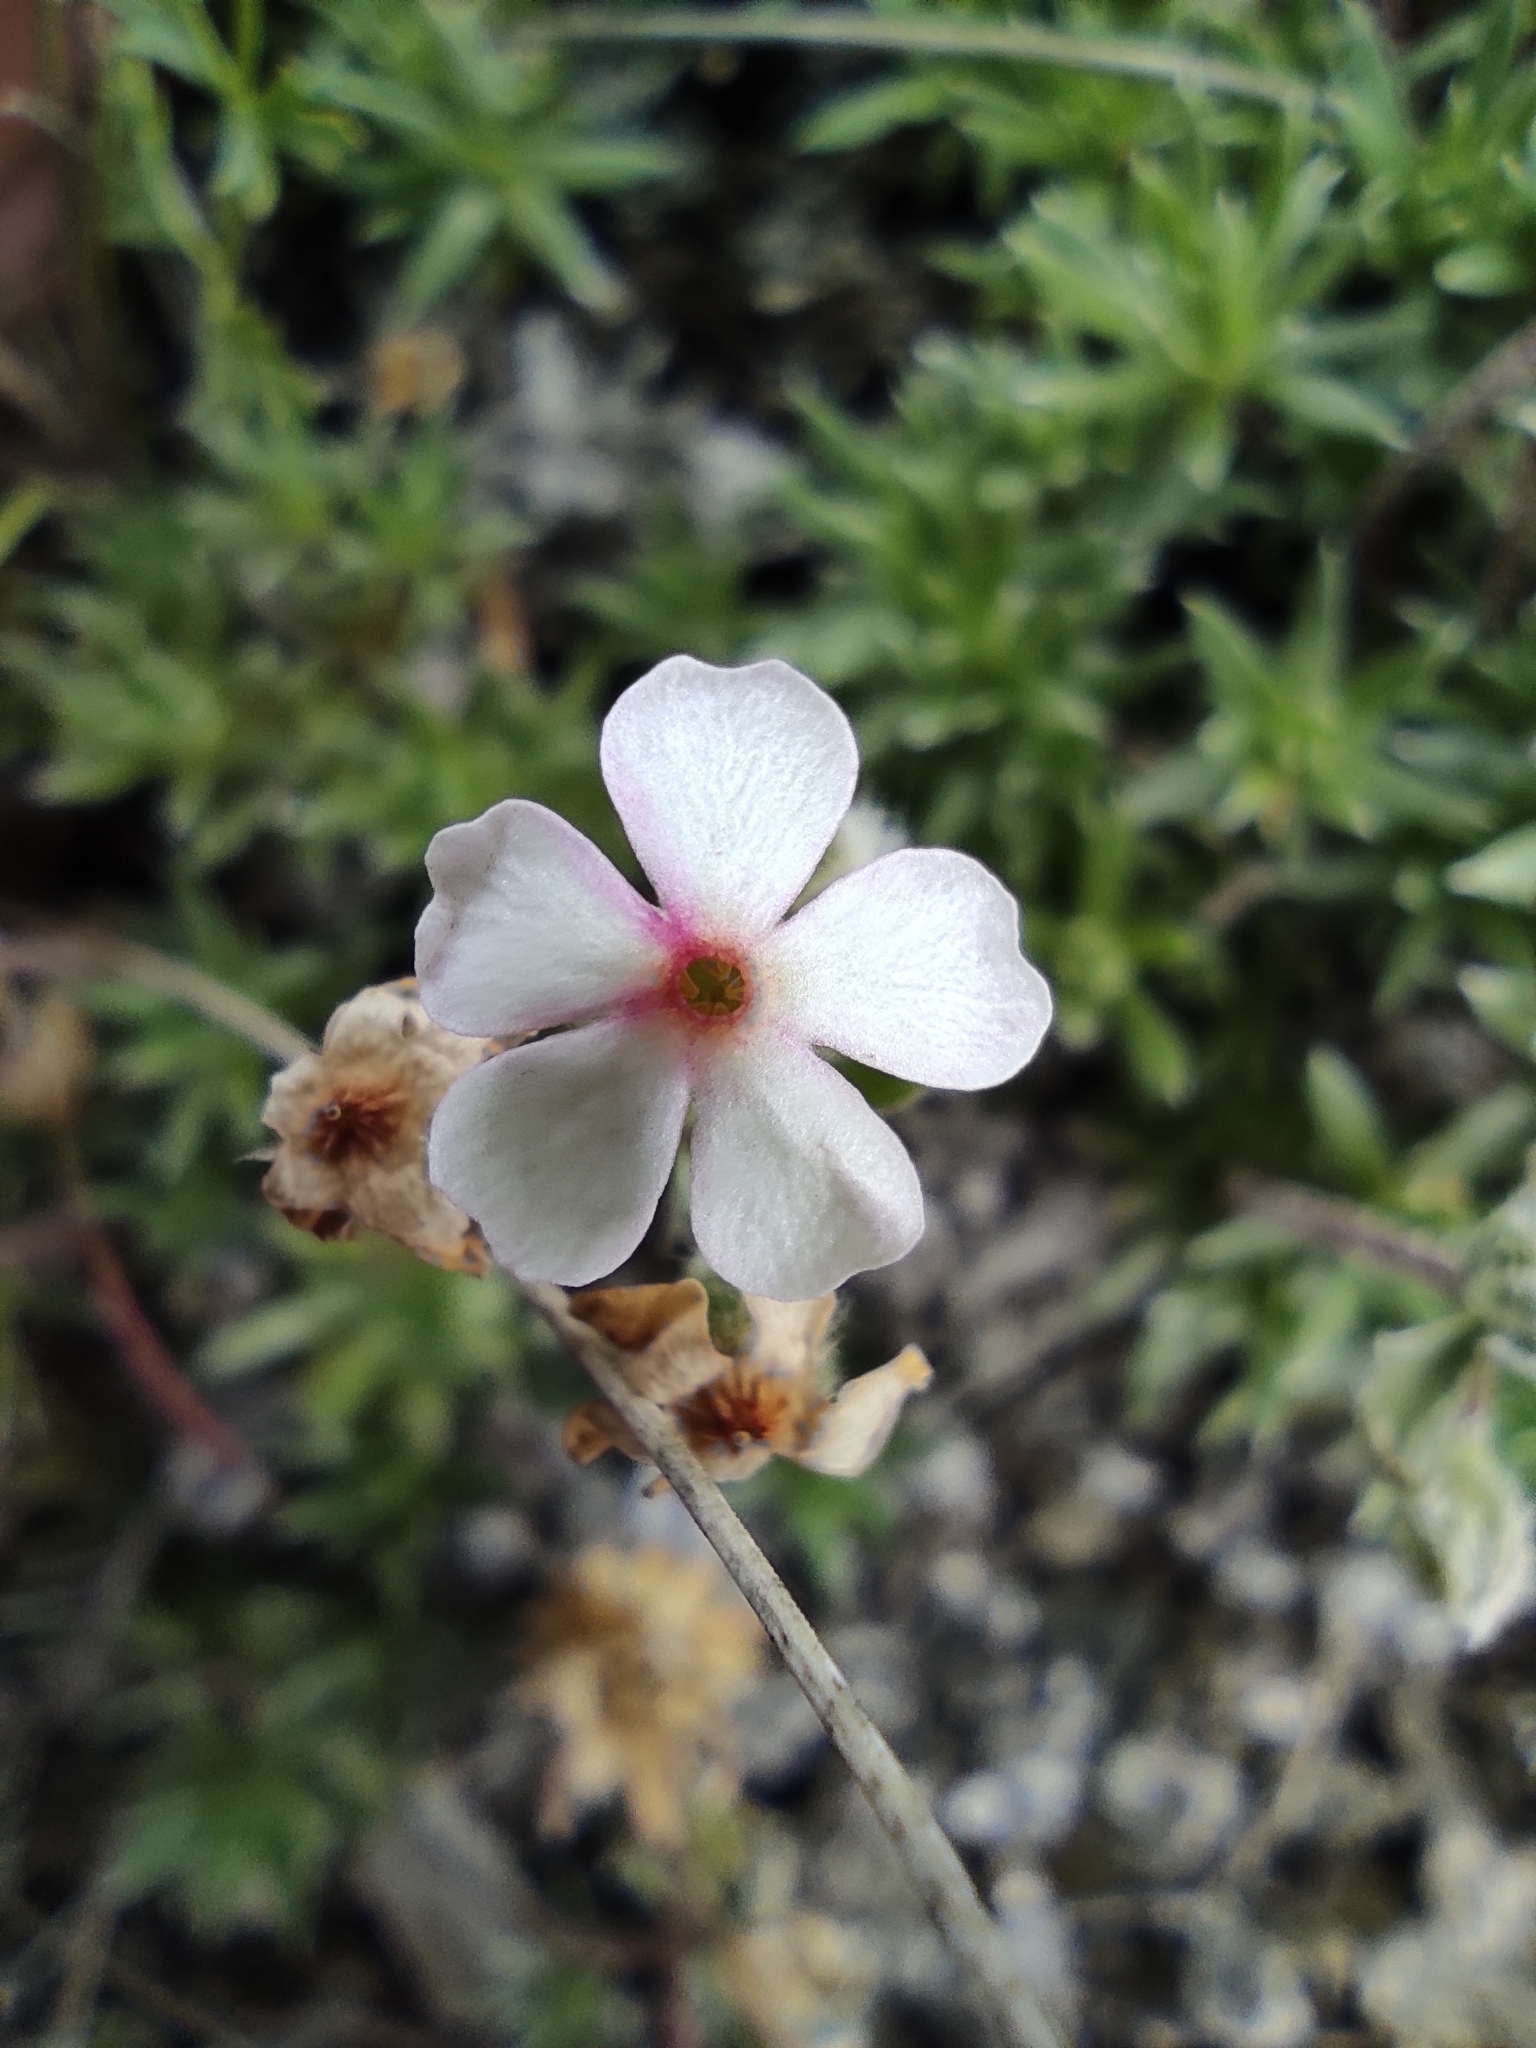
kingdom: Plantae
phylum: Tracheophyta
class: Magnoliopsida
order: Ericales
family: Primulaceae
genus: Androsace
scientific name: Androsace villosa
